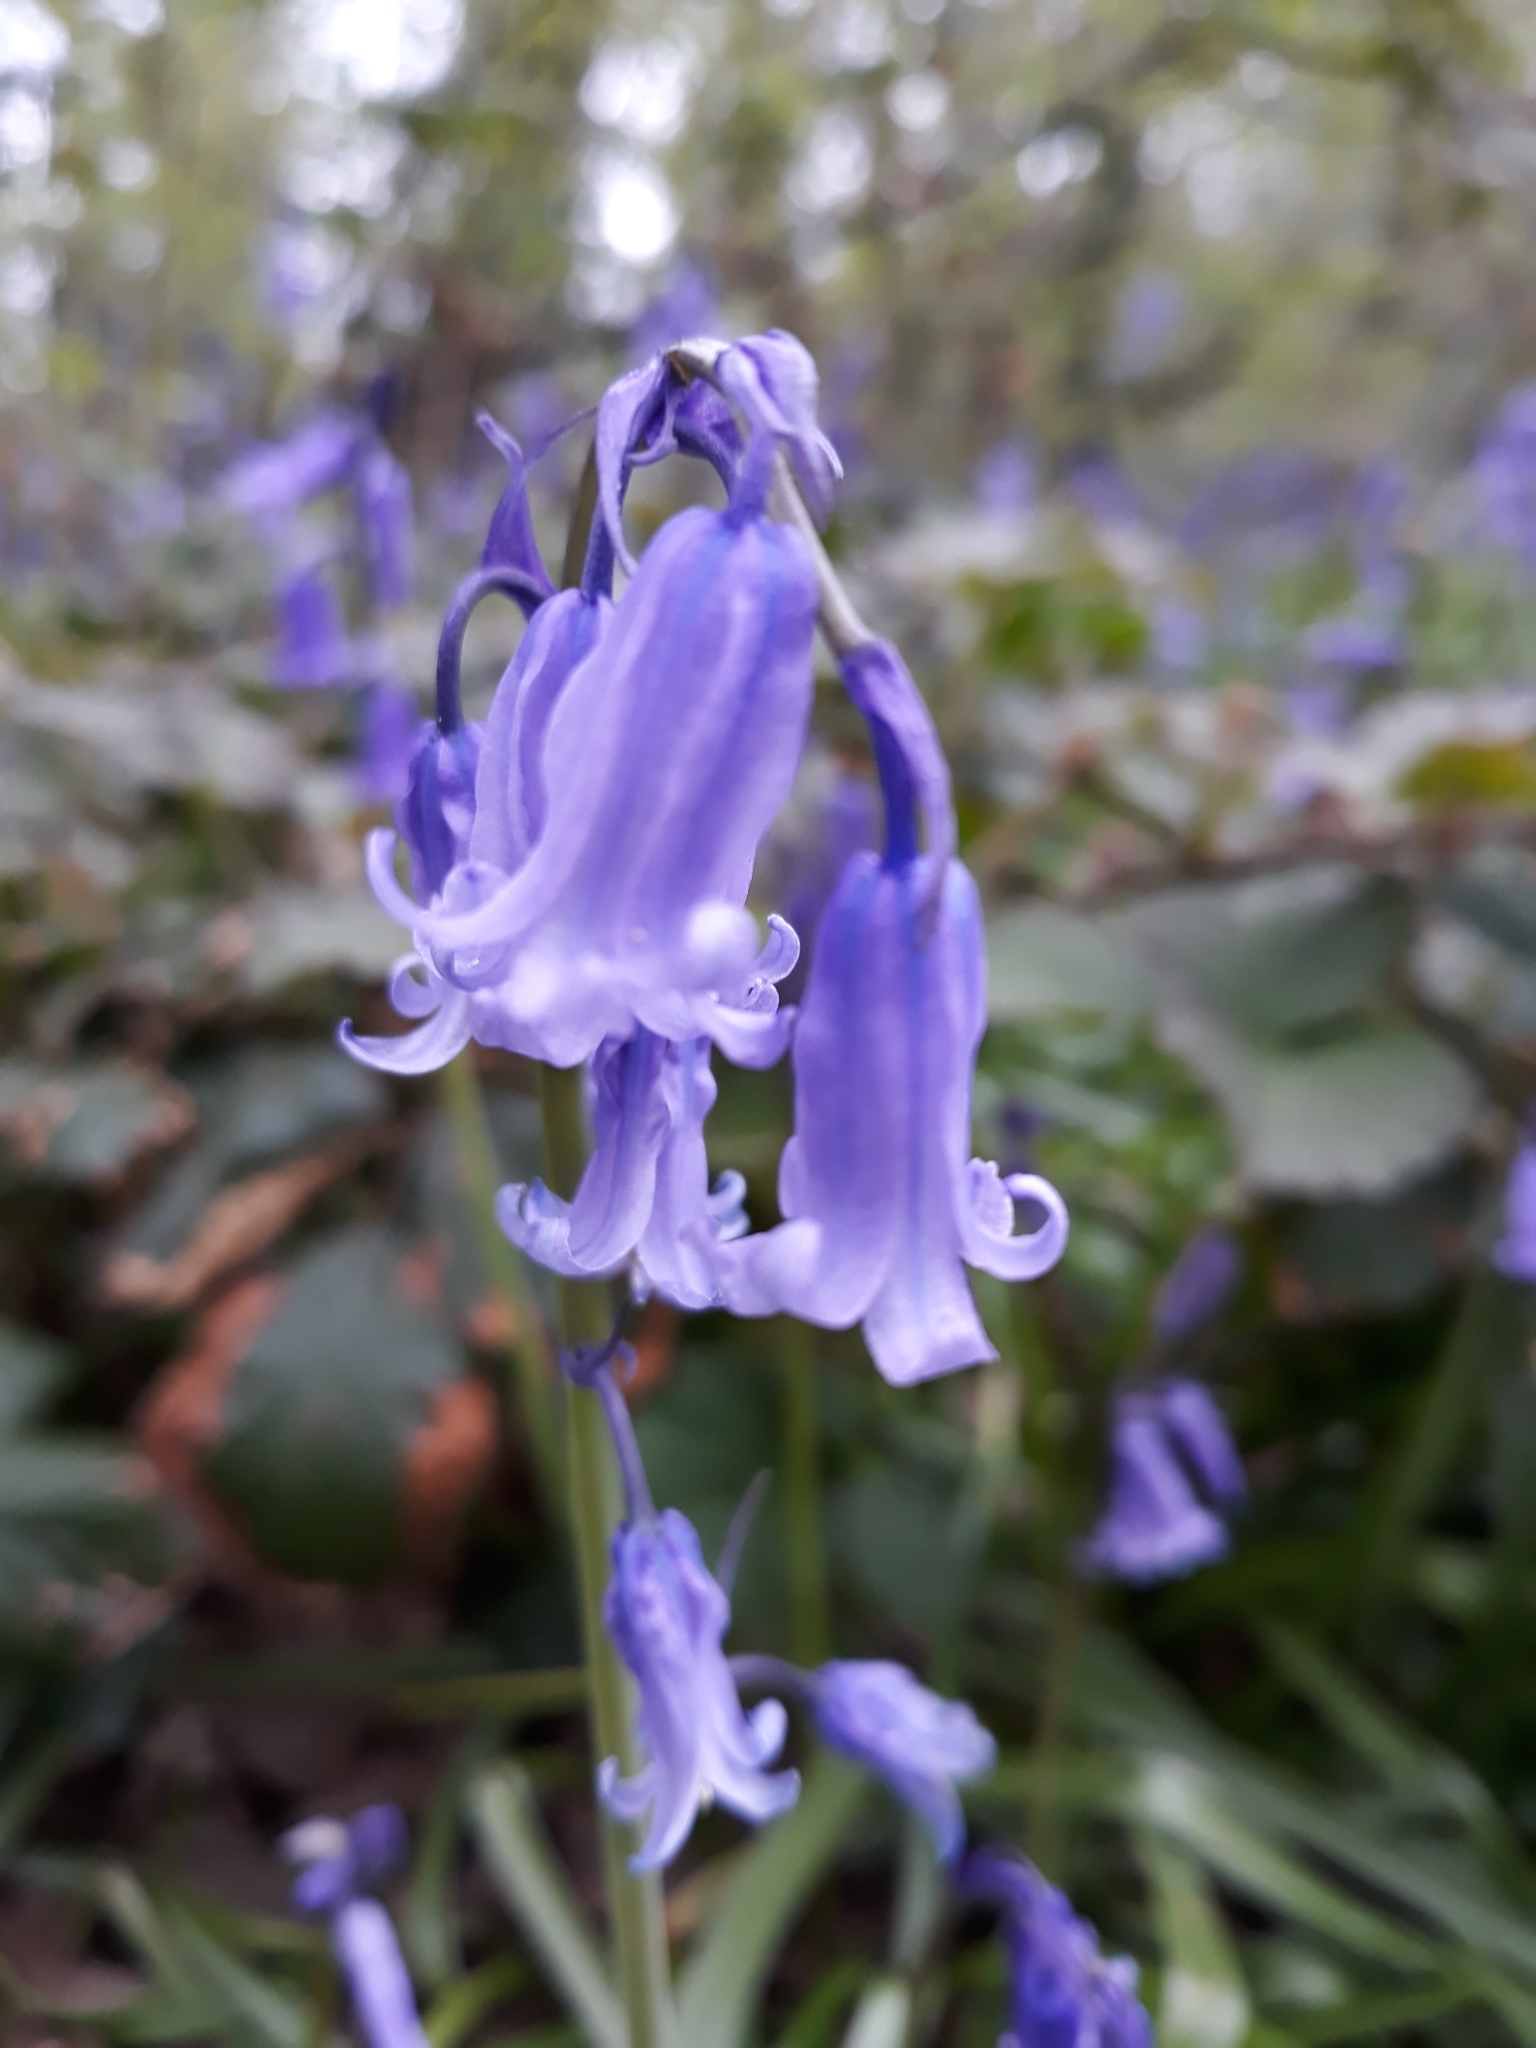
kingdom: Plantae
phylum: Tracheophyta
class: Liliopsida
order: Asparagales
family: Asparagaceae
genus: Hyacinthoides
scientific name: Hyacinthoides non-scripta
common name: Bluebell
